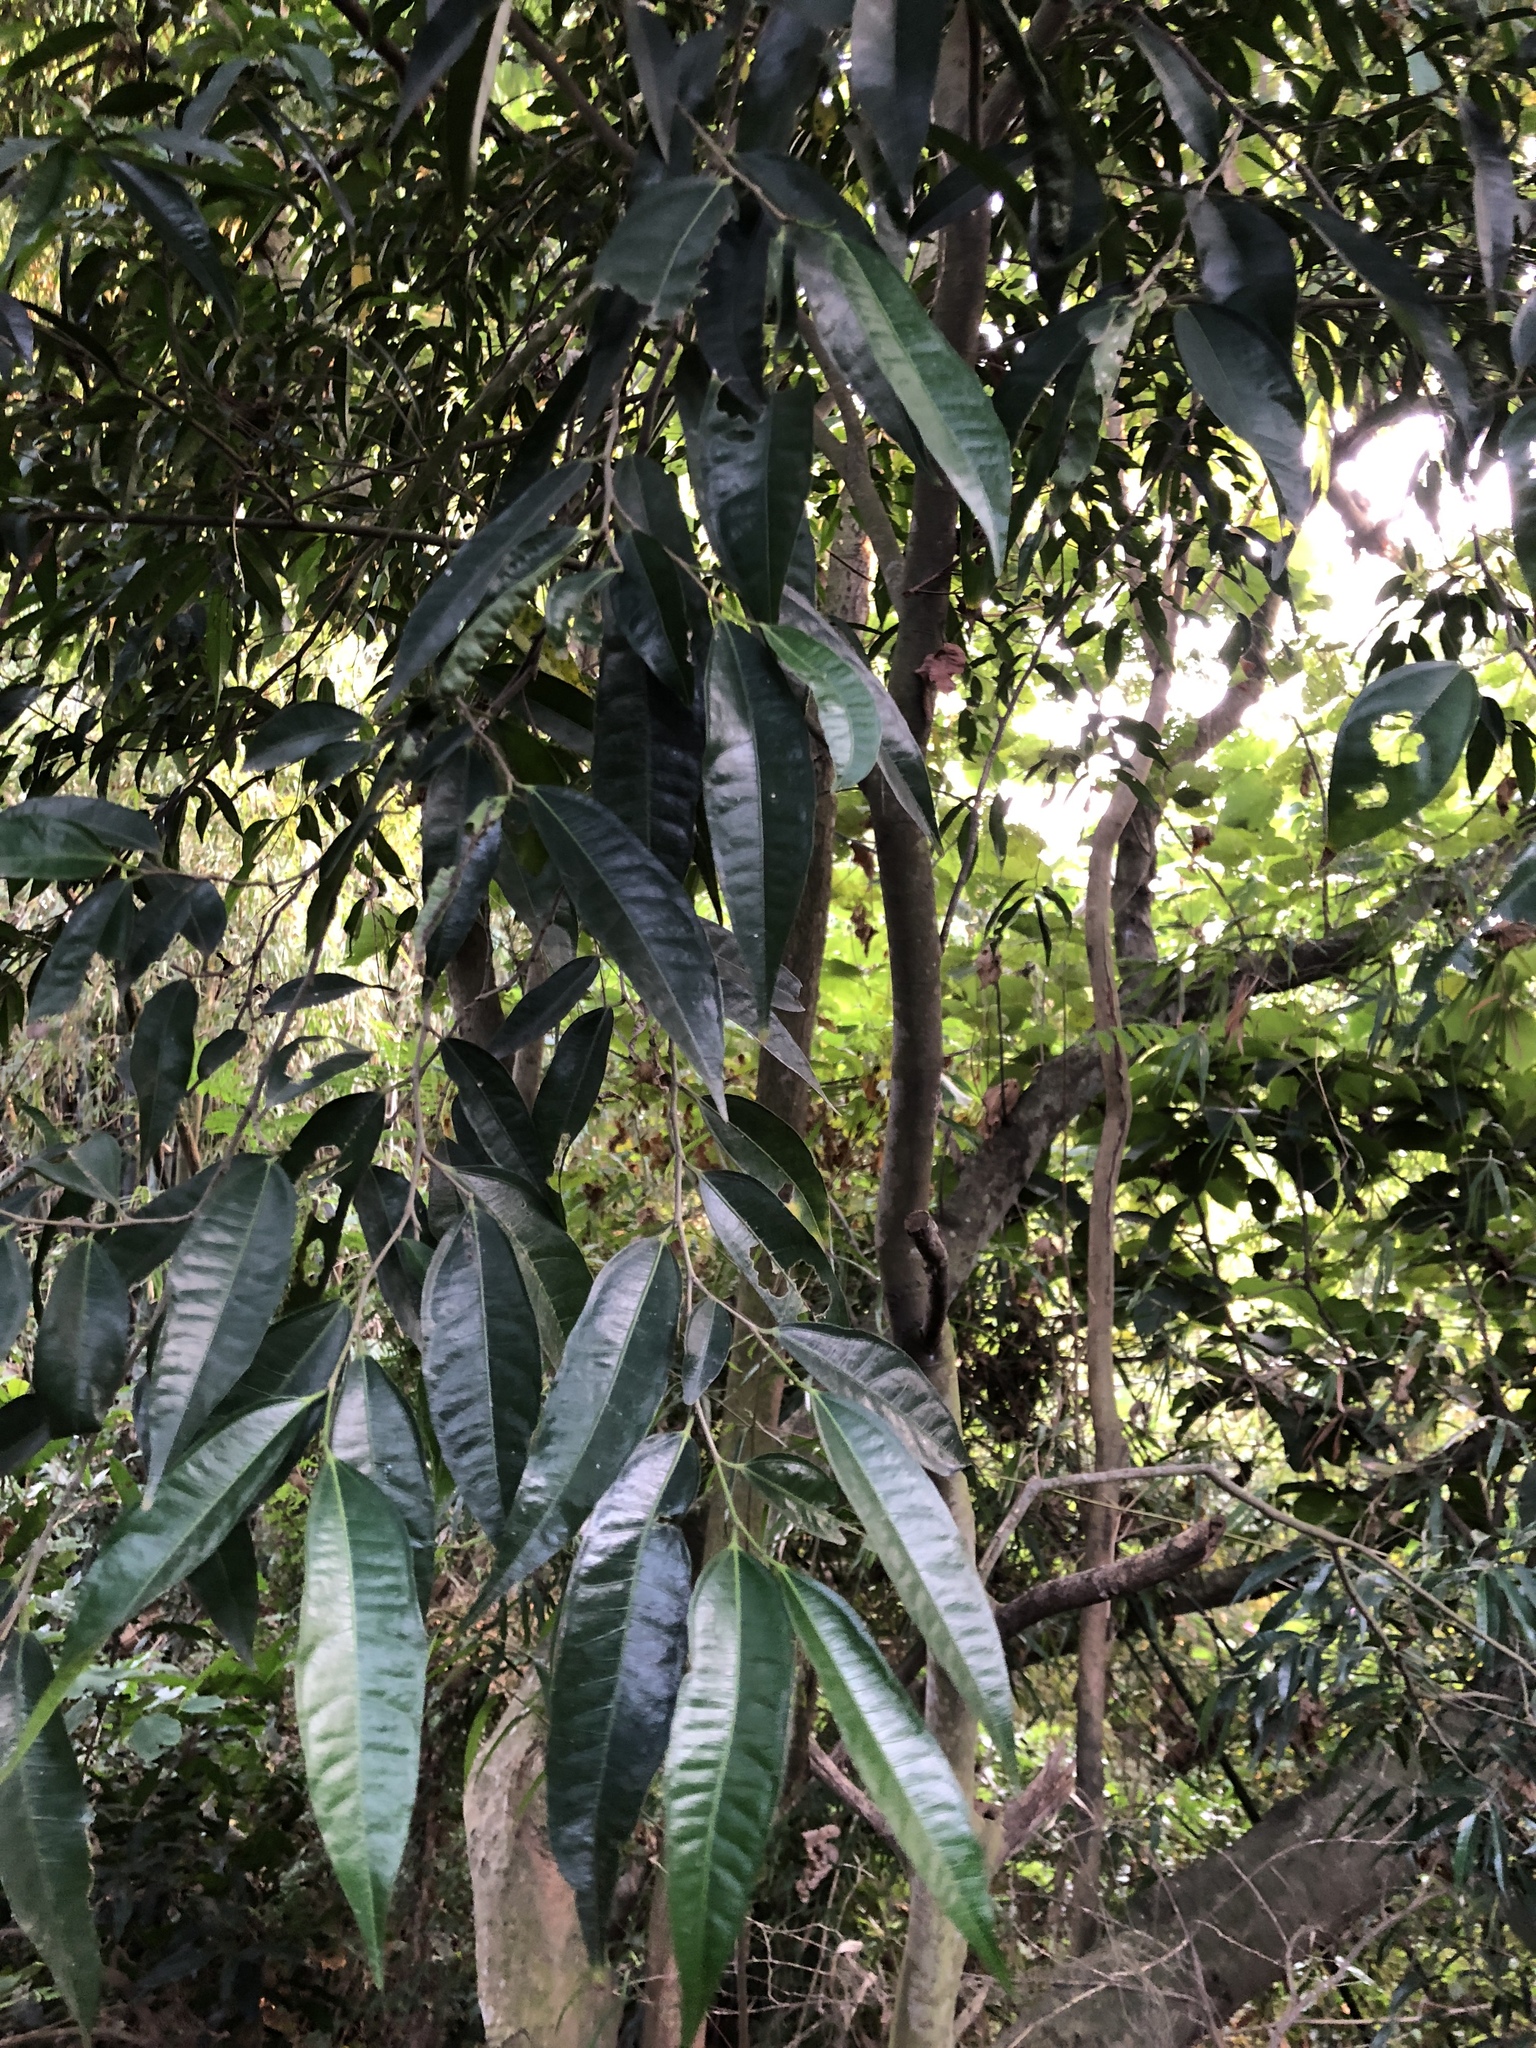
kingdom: Plantae
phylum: Tracheophyta
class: Magnoliopsida
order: Rosales
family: Moraceae
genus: Ficus
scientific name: Ficus ampelos
